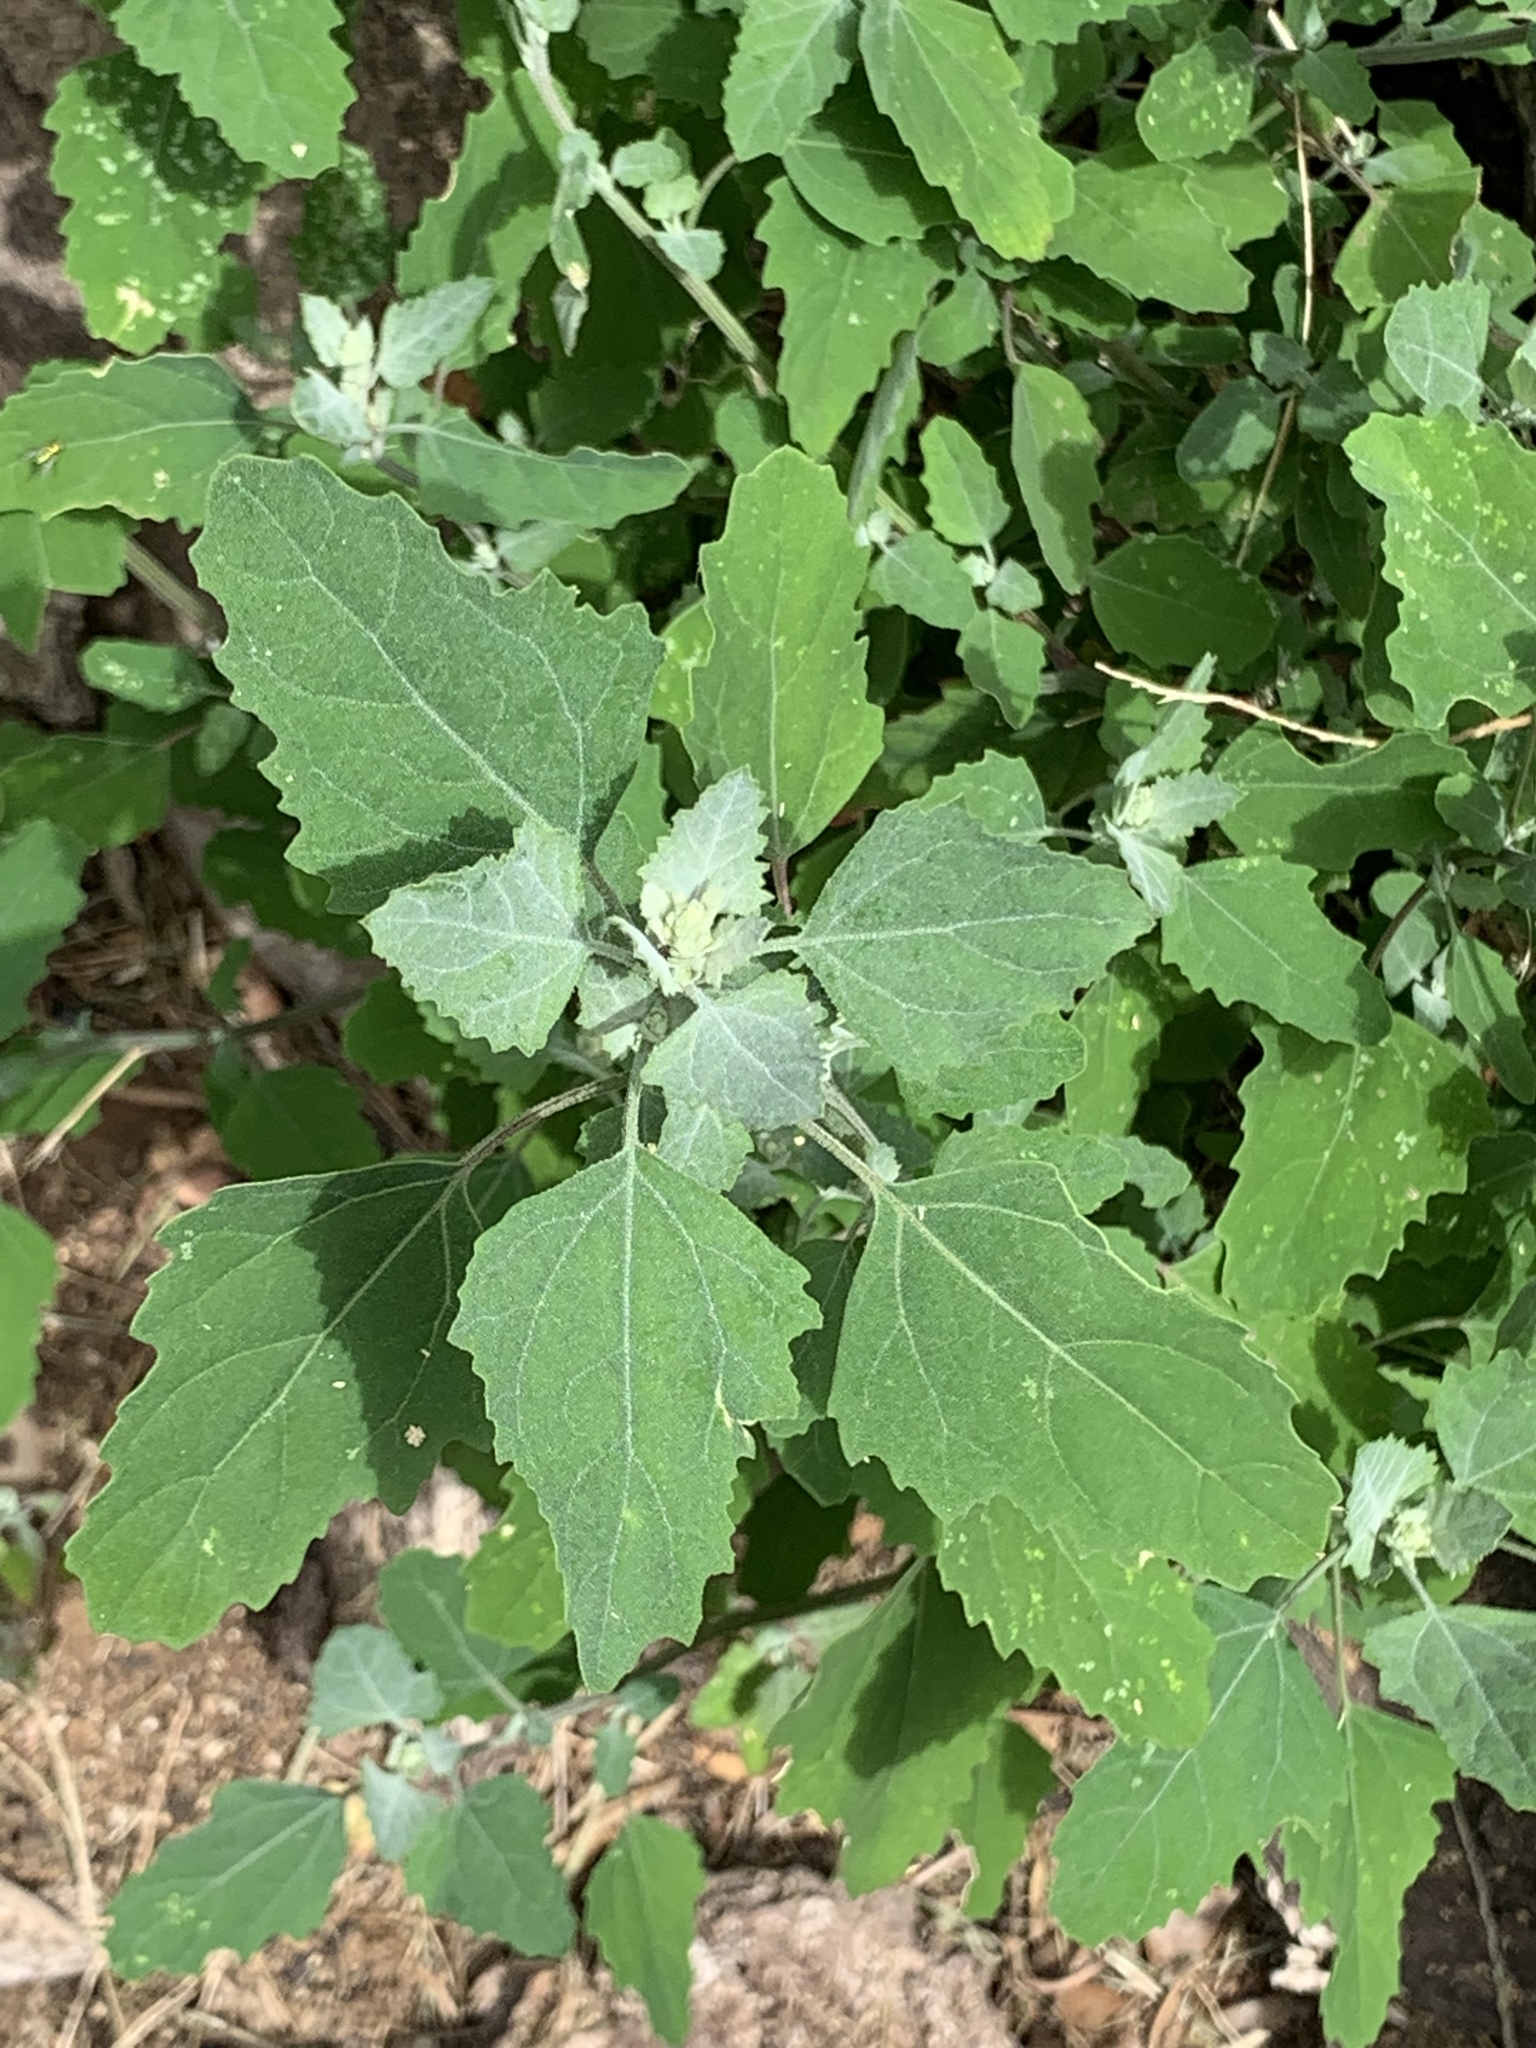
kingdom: Plantae
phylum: Tracheophyta
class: Magnoliopsida
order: Caryophyllales
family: Amaranthaceae
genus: Chenopodium
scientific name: Chenopodium album
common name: Fat-hen
